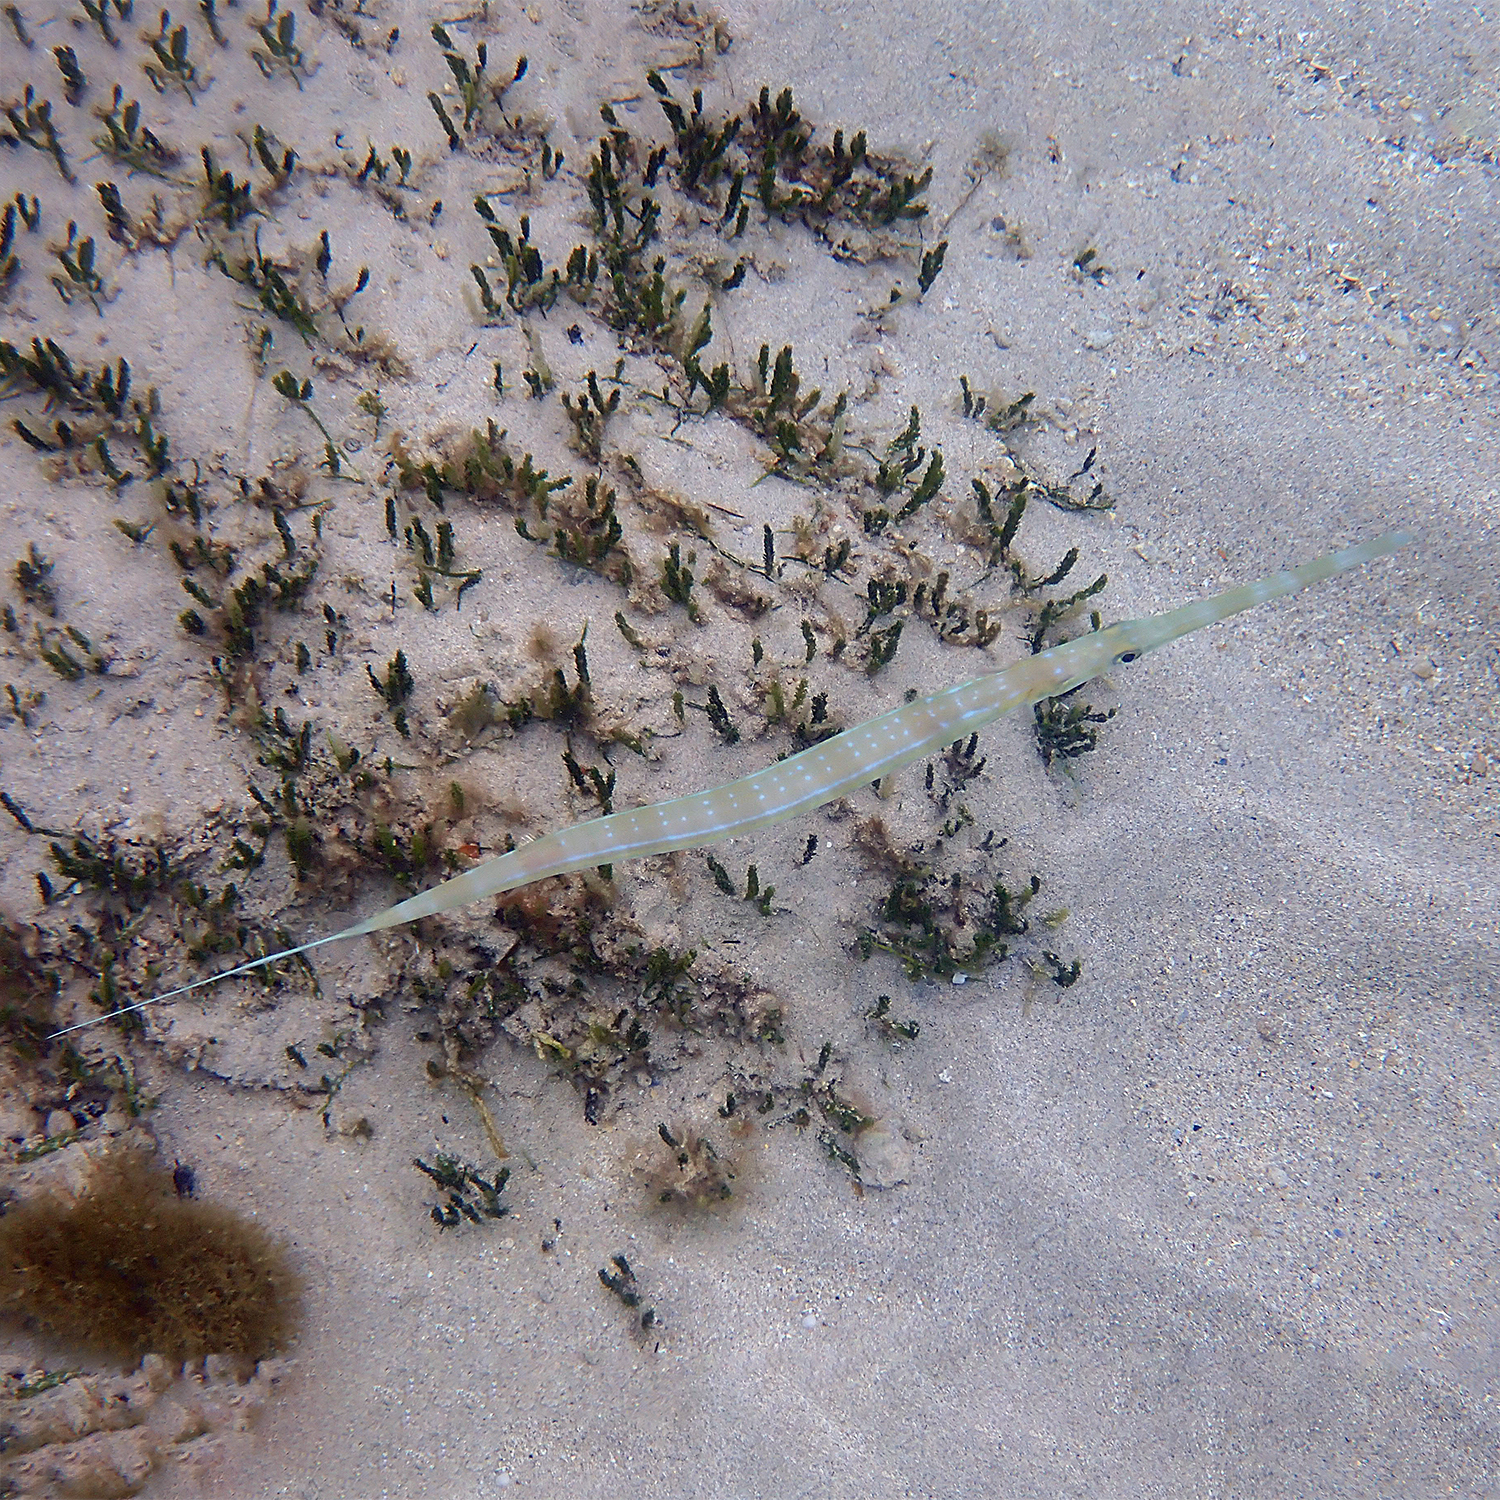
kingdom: Animalia
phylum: Chordata
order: Syngnathiformes
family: Fistulariidae
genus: Fistularia
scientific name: Fistularia commersonii
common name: Bluespotted cornetfish
